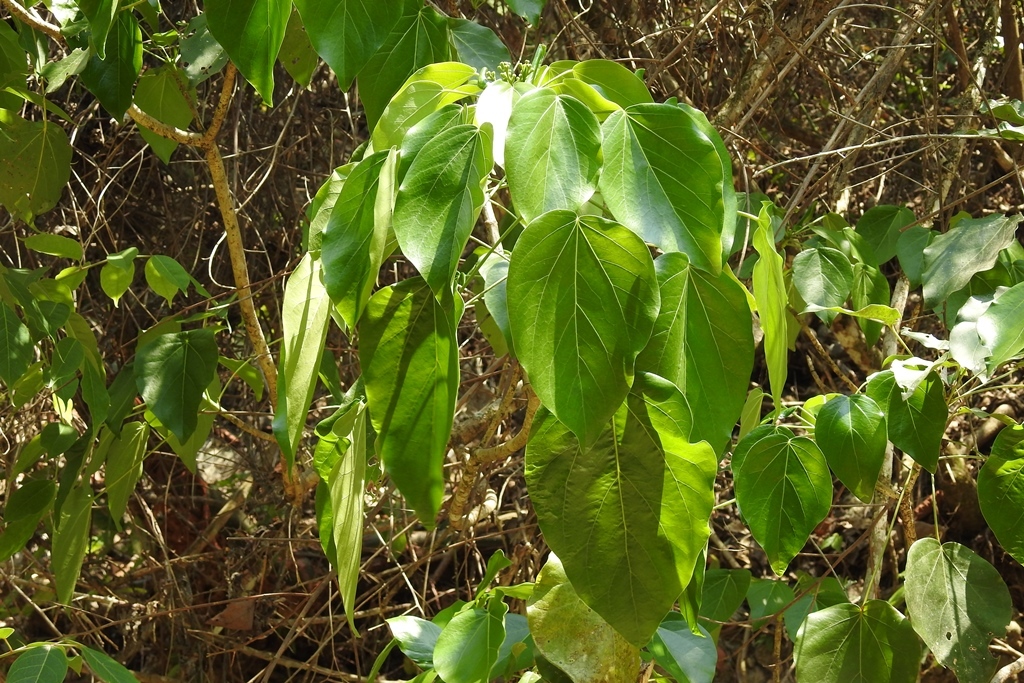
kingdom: Plantae
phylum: Tracheophyta
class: Magnoliopsida
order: Apiales
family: Araliaceae
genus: Oreopanax
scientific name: Oreopanax guatemalensis
